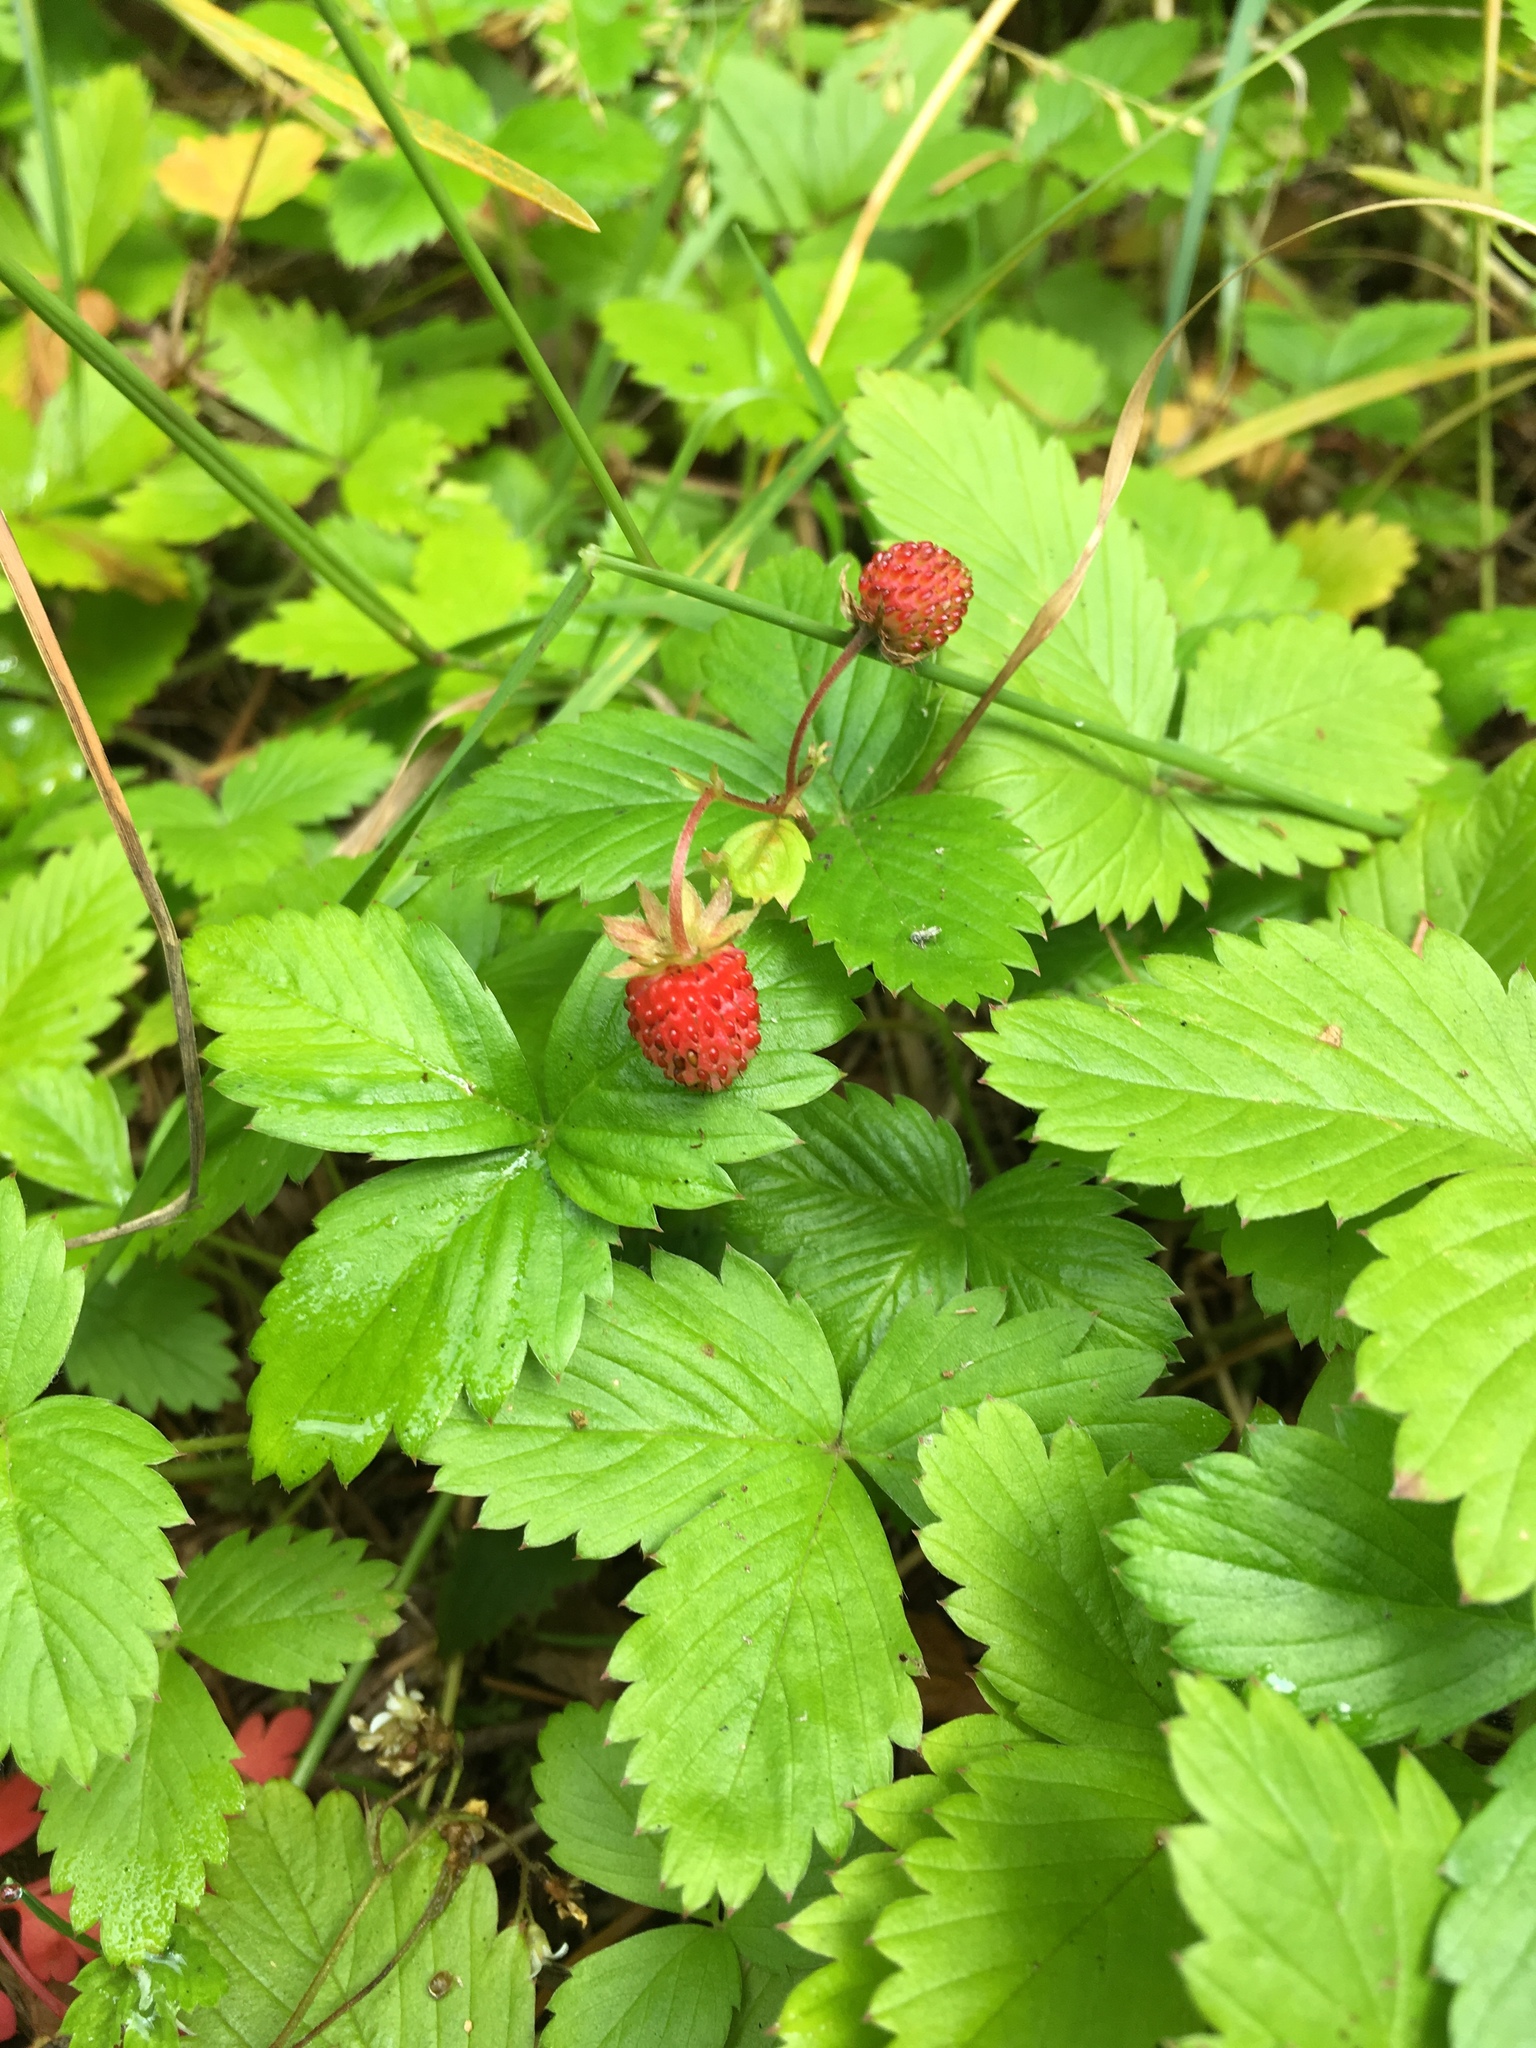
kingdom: Plantae
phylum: Tracheophyta
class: Magnoliopsida
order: Rosales
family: Rosaceae
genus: Fragaria
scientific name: Fragaria vesca
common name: Wild strawberry
